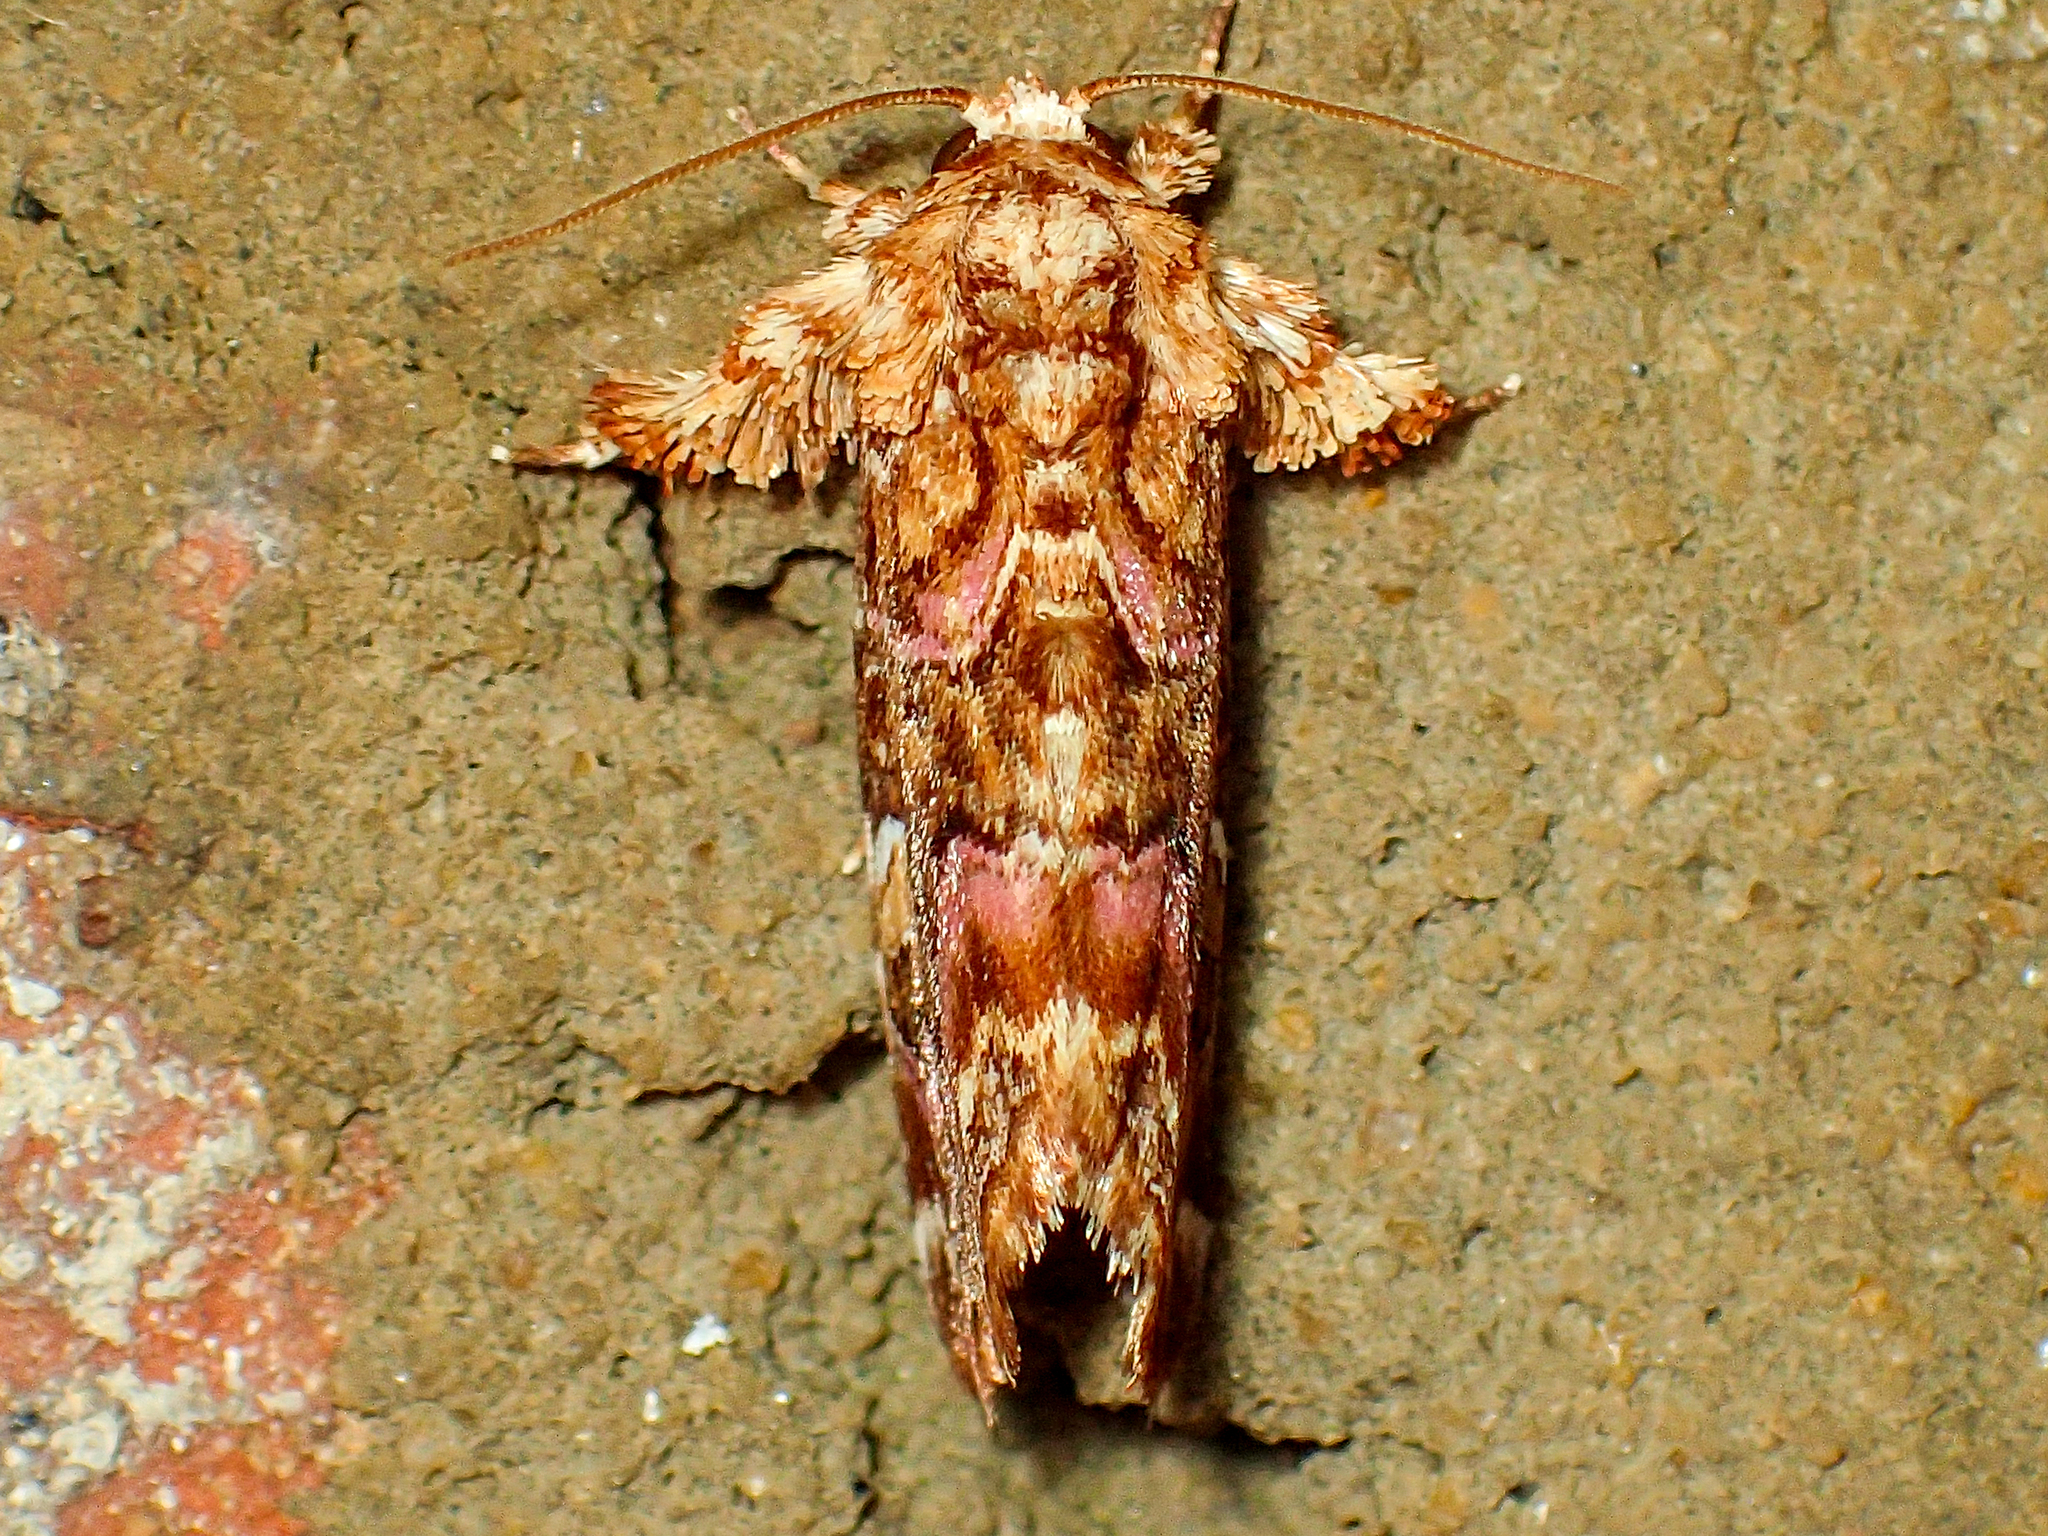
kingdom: Animalia
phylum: Arthropoda
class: Insecta
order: Lepidoptera
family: Noctuidae
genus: Callopistria
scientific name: Callopistria mollissima
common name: Pink-shaded fern moth
